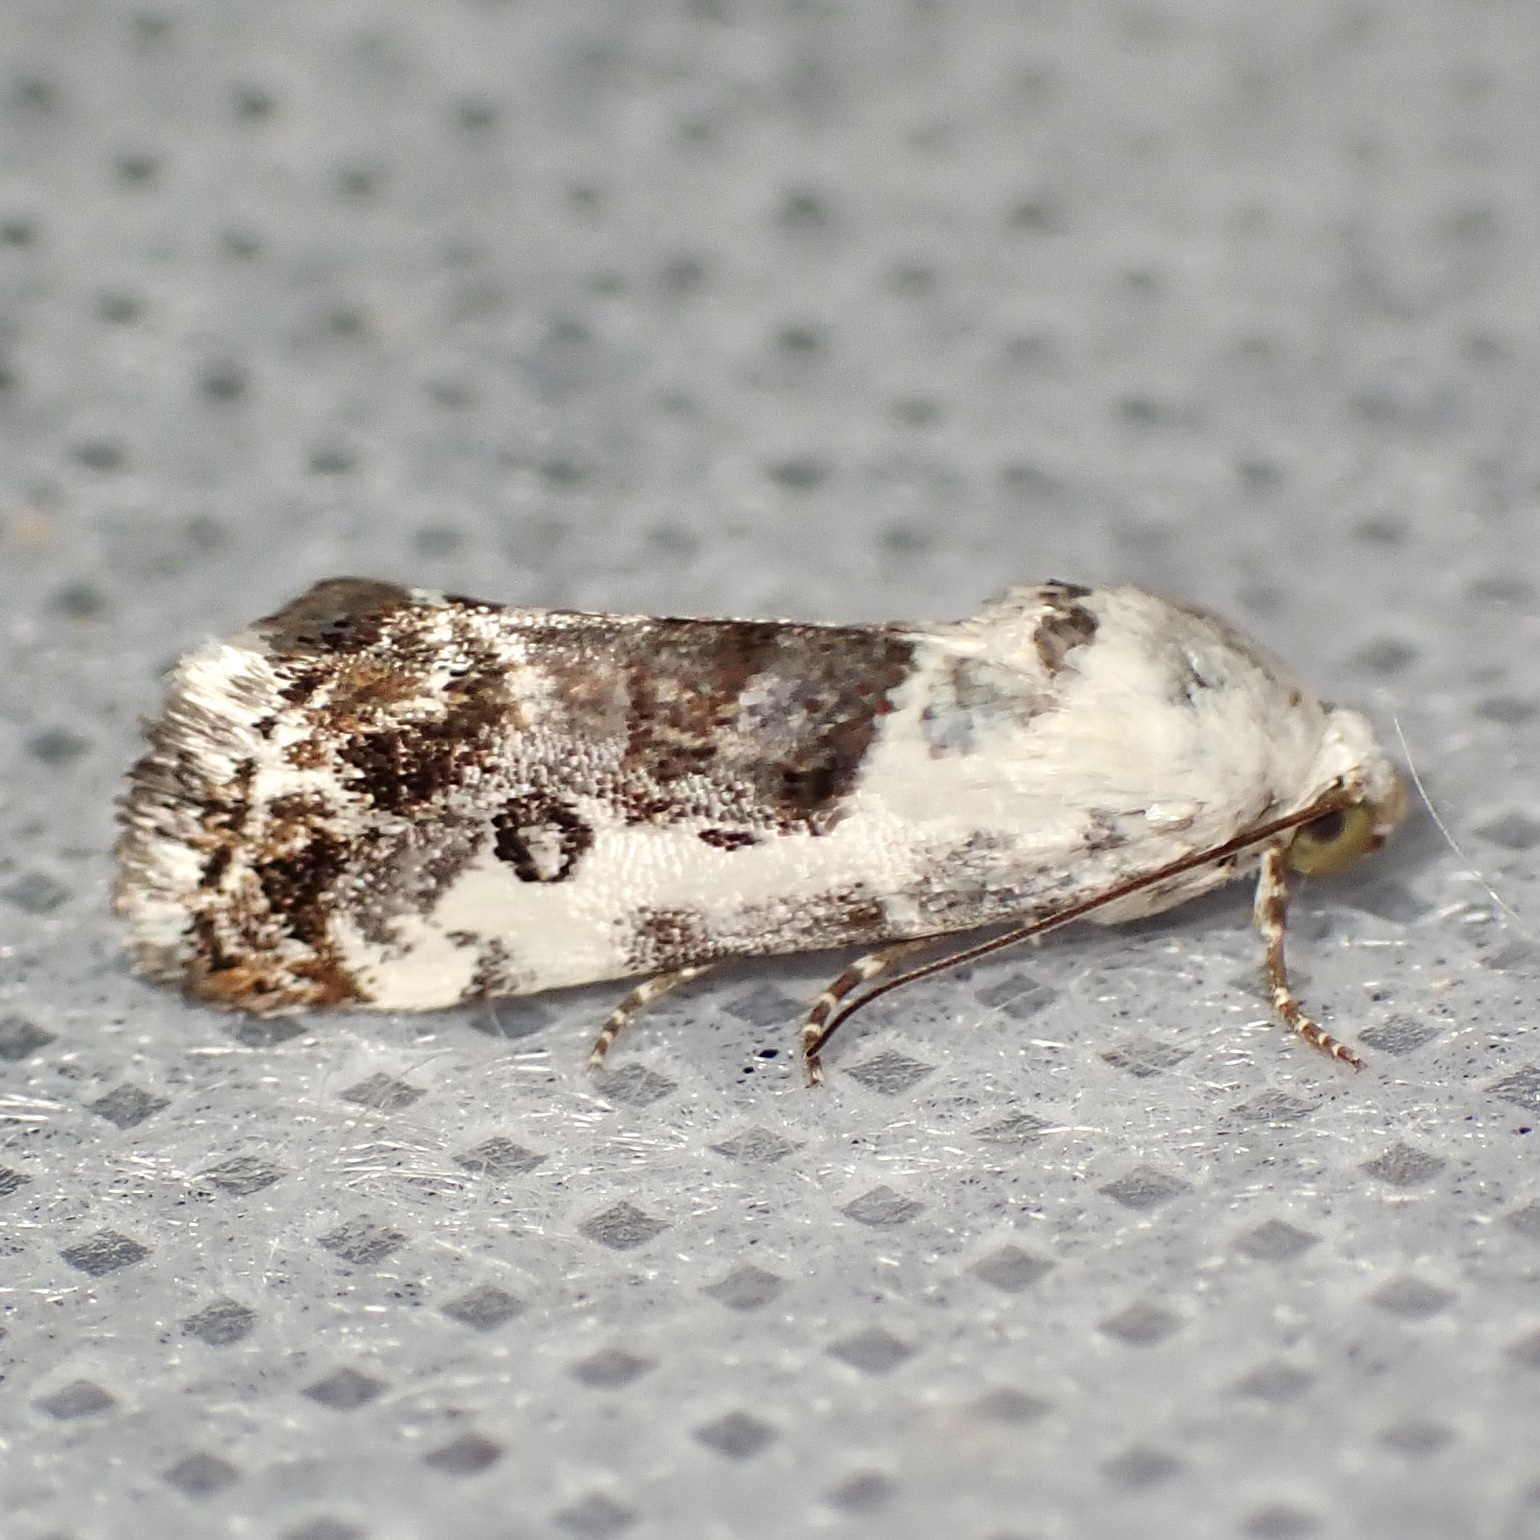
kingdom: Animalia
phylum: Arthropoda
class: Insecta
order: Lepidoptera
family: Noctuidae
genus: Acontia
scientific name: Acontia phecolisca
